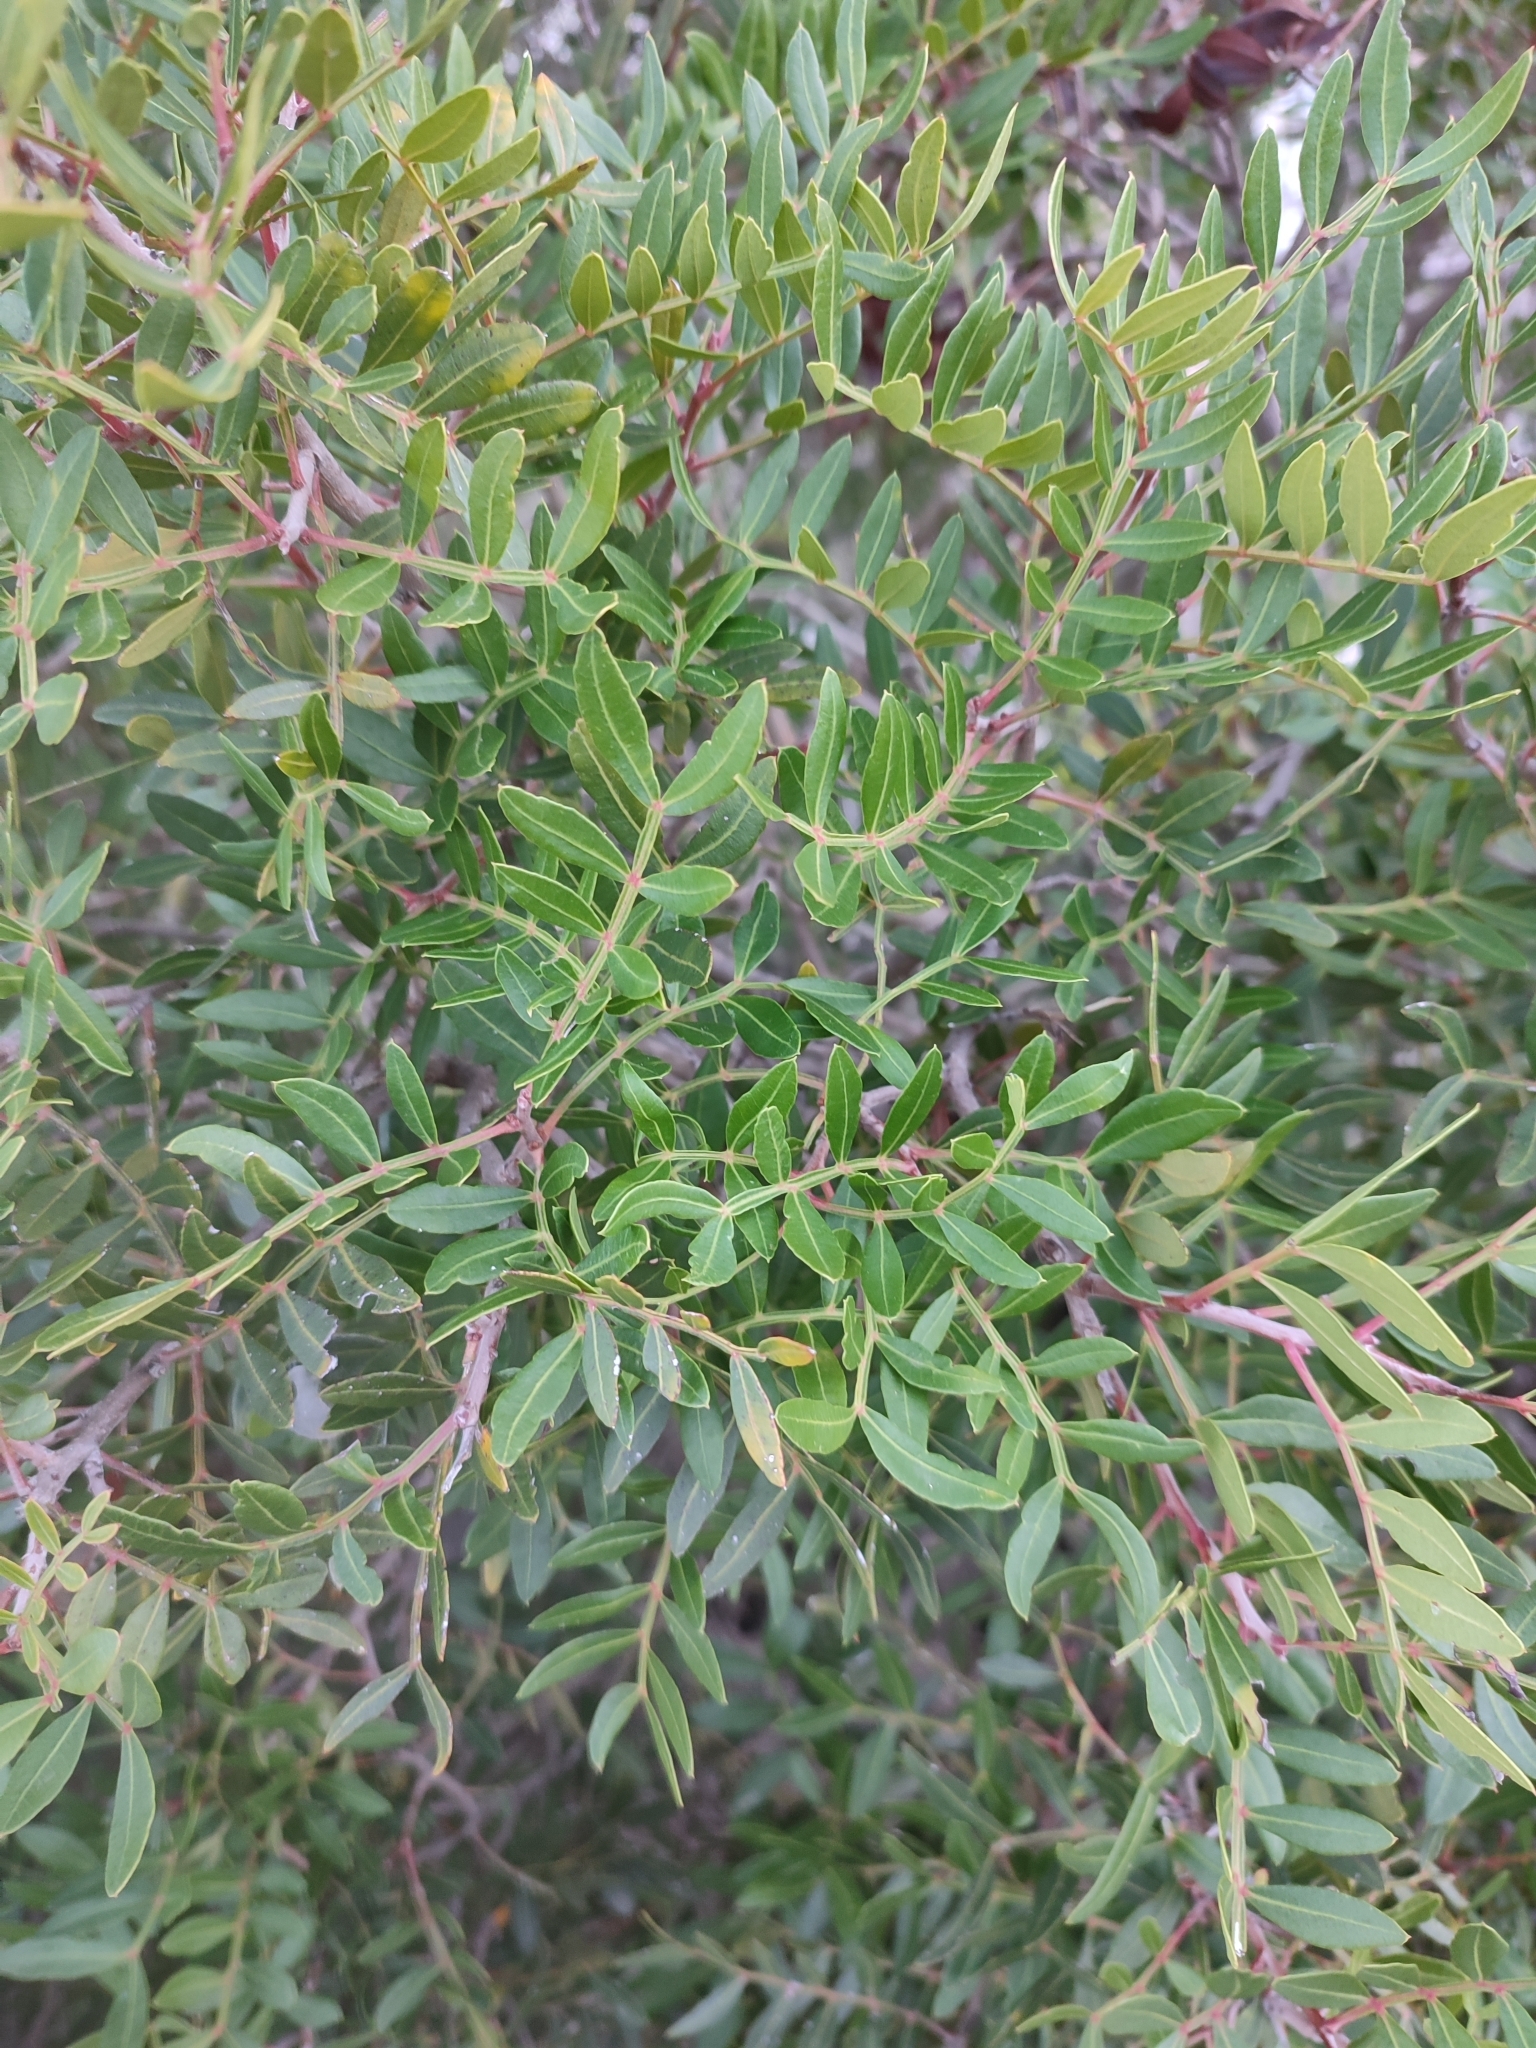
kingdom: Plantae
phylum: Tracheophyta
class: Magnoliopsida
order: Sapindales
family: Anacardiaceae
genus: Pistacia
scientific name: Pistacia lentiscus
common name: Lentisk
